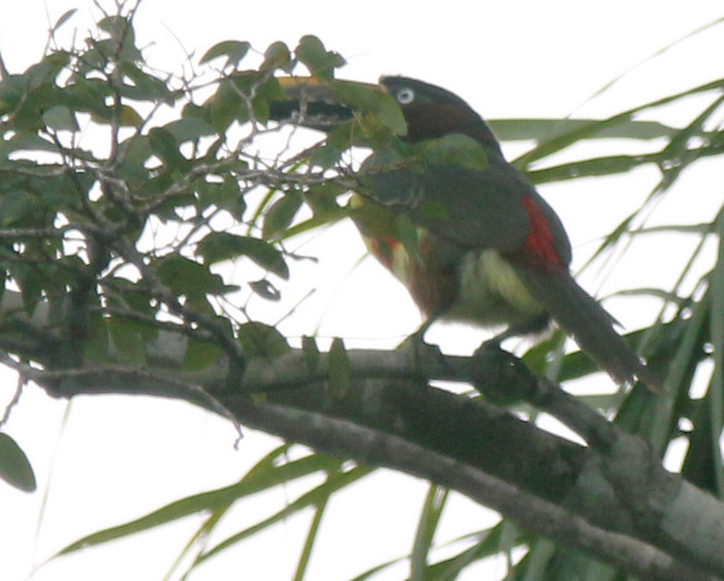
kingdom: Animalia
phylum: Chordata
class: Aves
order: Piciformes
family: Ramphastidae
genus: Pteroglossus
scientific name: Pteroglossus castanotis
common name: Chestnut-eared aracari
